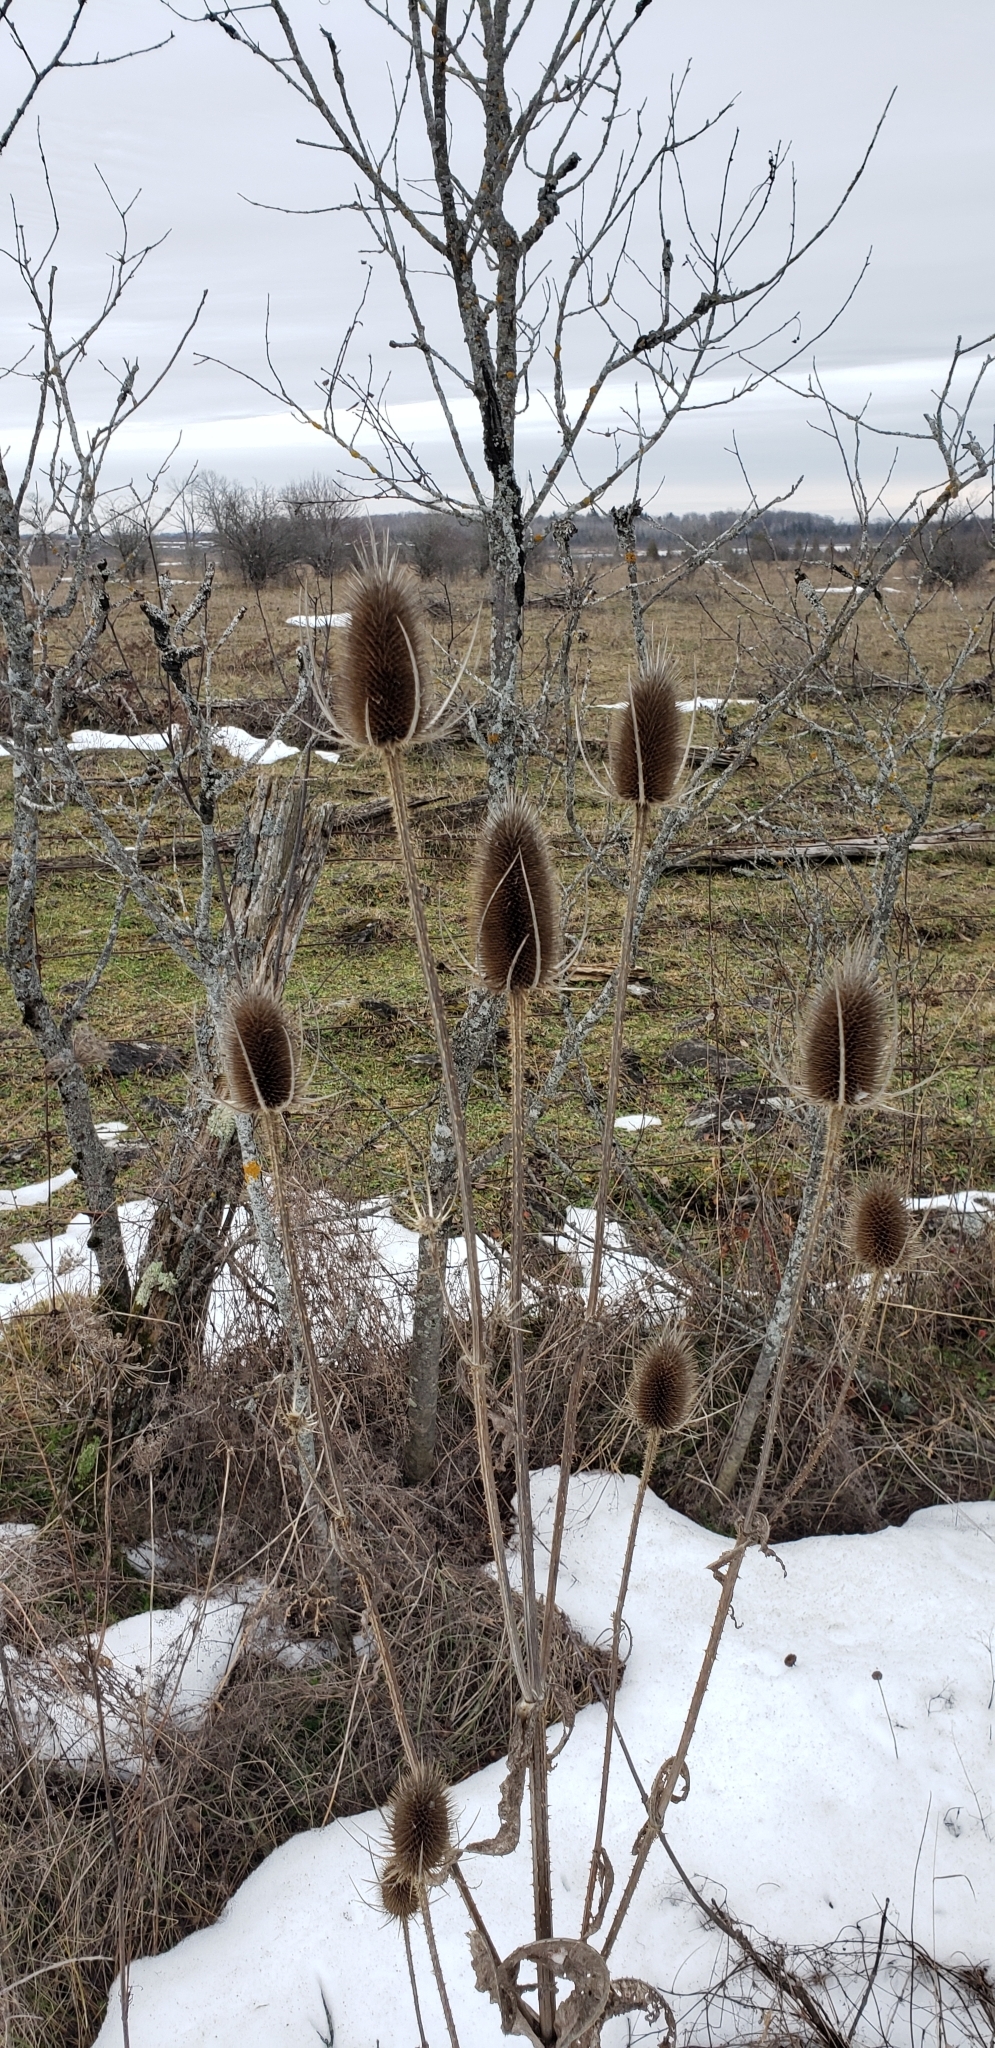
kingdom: Plantae
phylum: Tracheophyta
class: Magnoliopsida
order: Dipsacales
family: Caprifoliaceae
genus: Dipsacus
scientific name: Dipsacus fullonum
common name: Teasel
